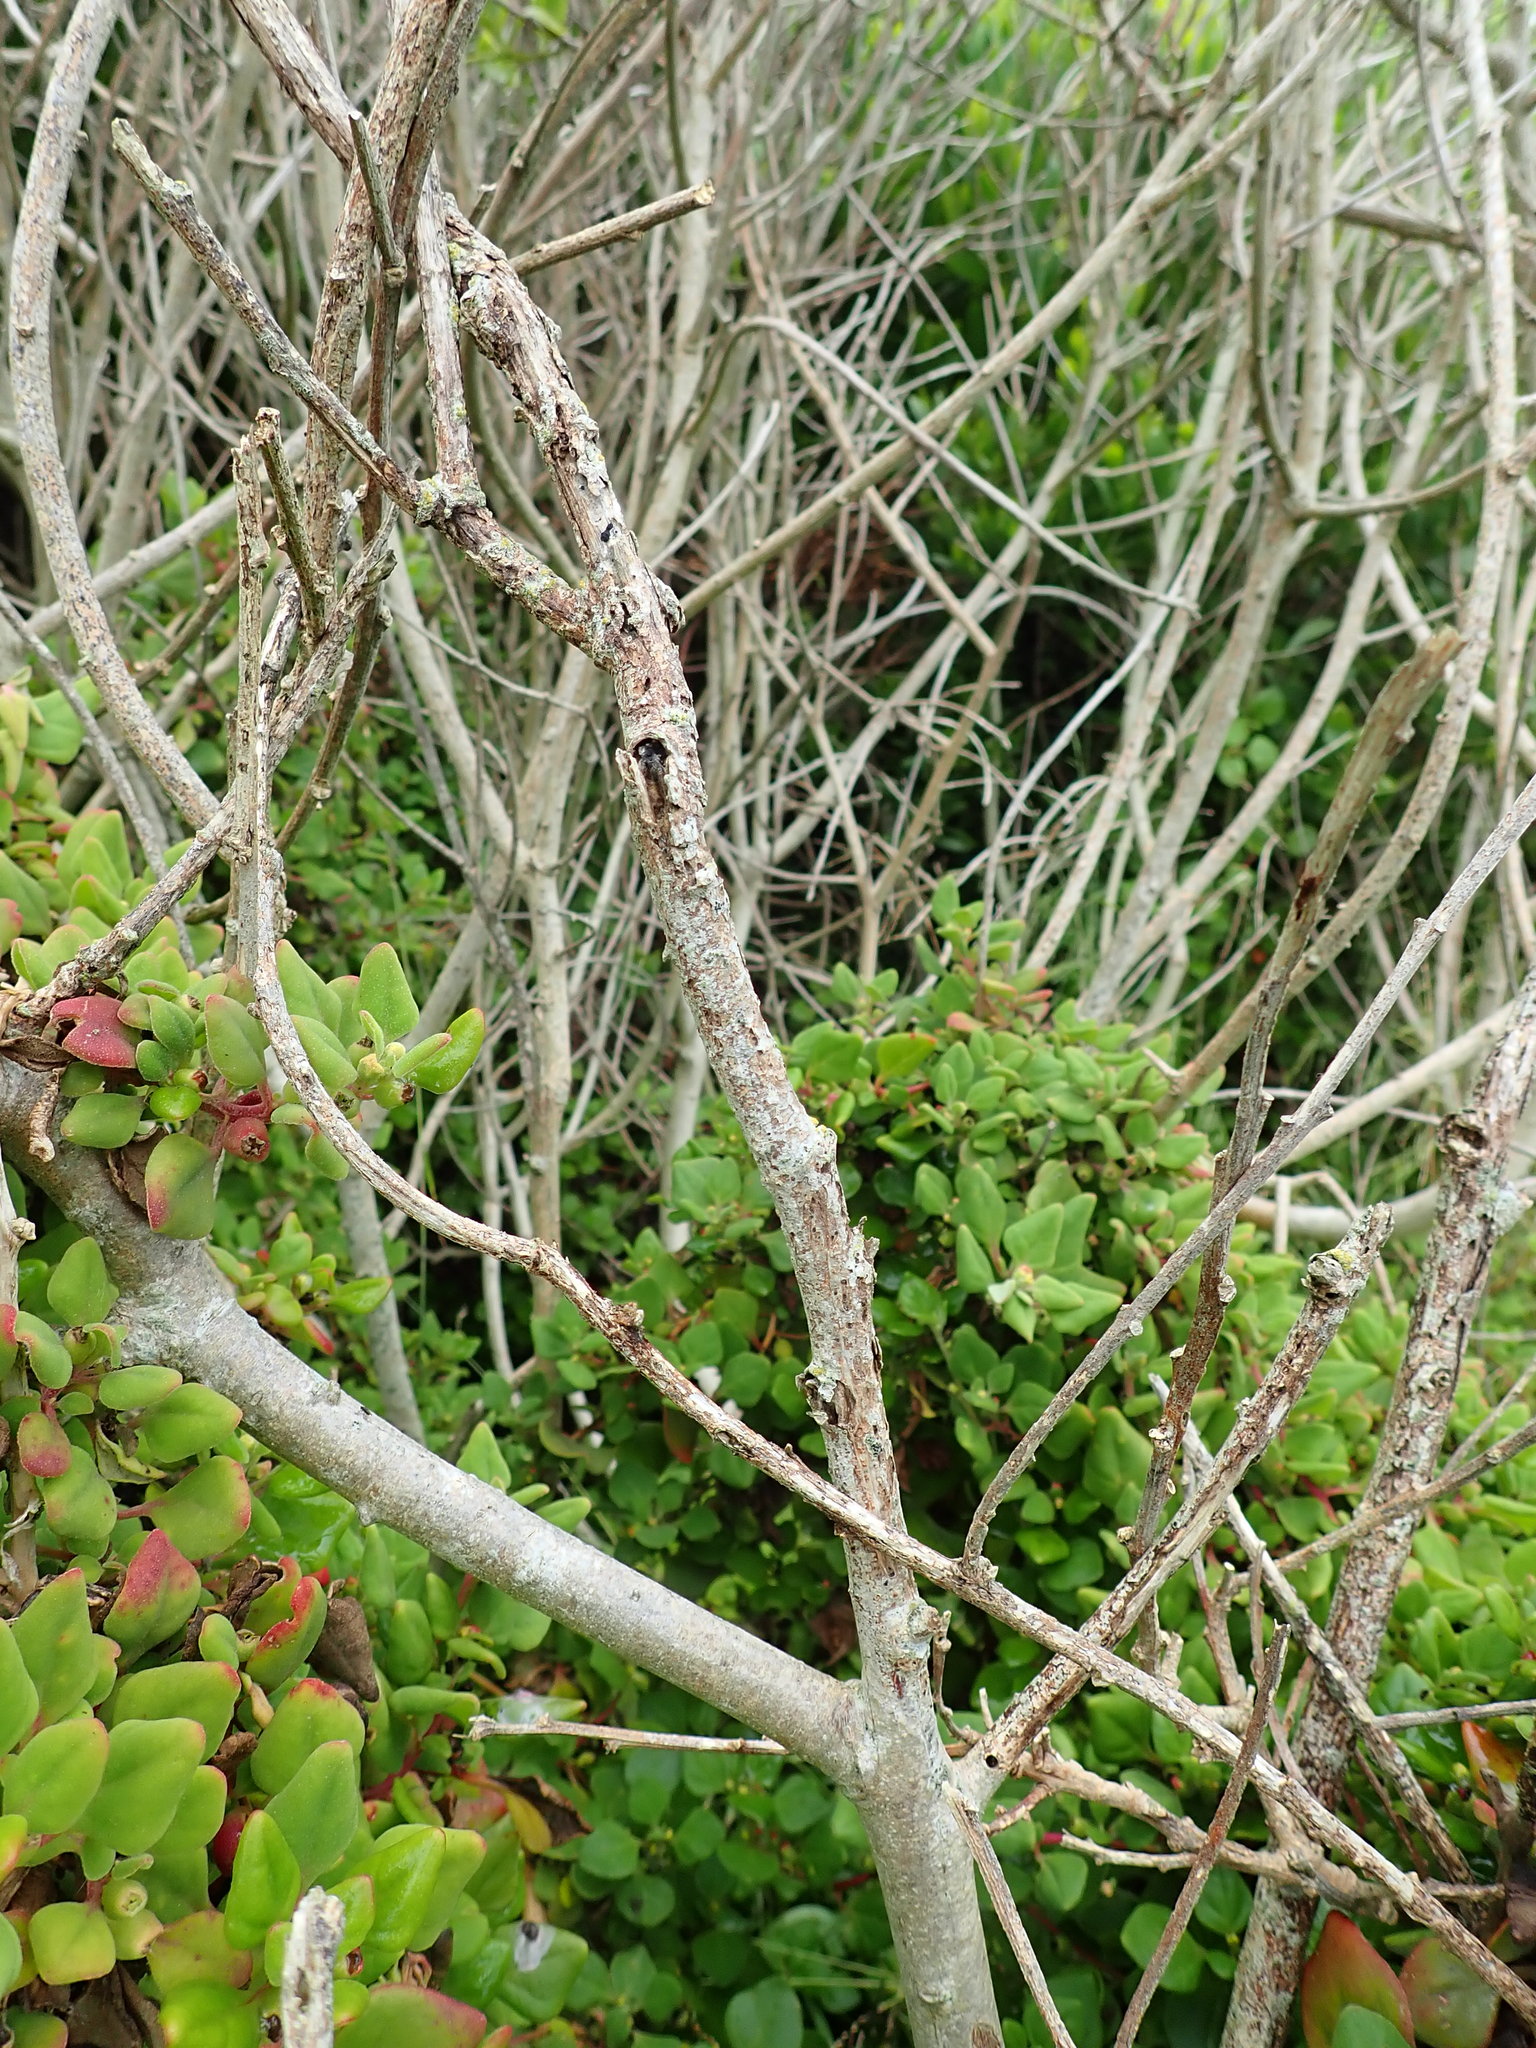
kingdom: Plantae
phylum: Tracheophyta
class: Magnoliopsida
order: Caryophyllales
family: Aizoaceae
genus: Tetragonia
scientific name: Tetragonia implexicoma
